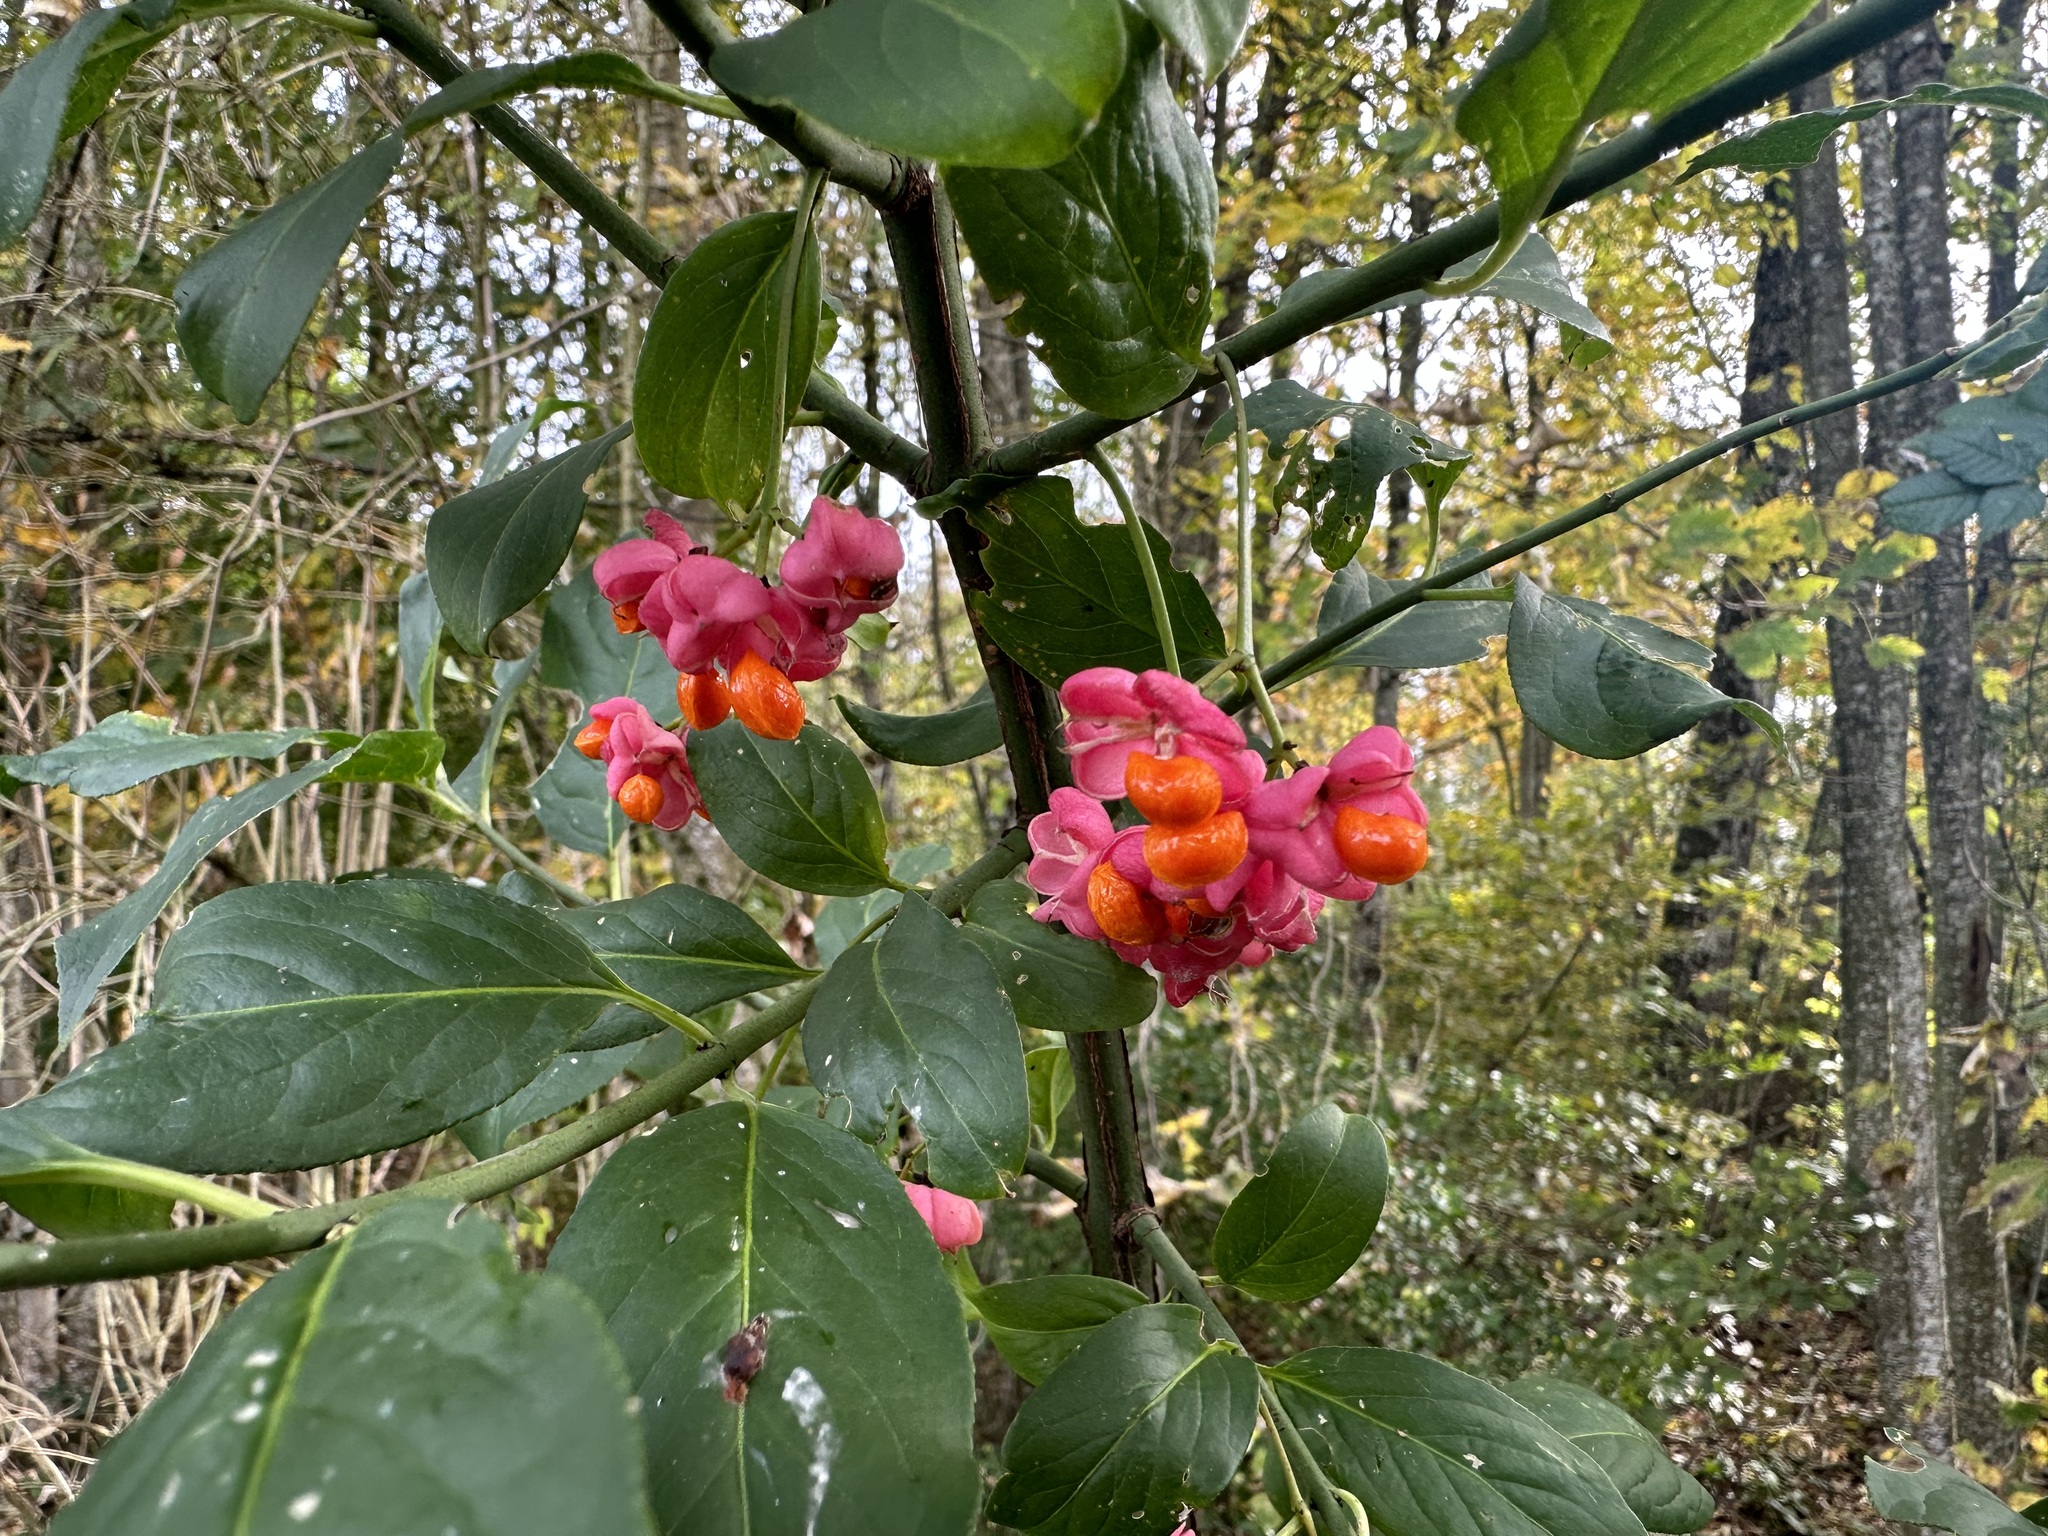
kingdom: Plantae
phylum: Tracheophyta
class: Magnoliopsida
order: Celastrales
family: Celastraceae
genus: Euonymus
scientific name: Euonymus europaeus
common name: Spindle
